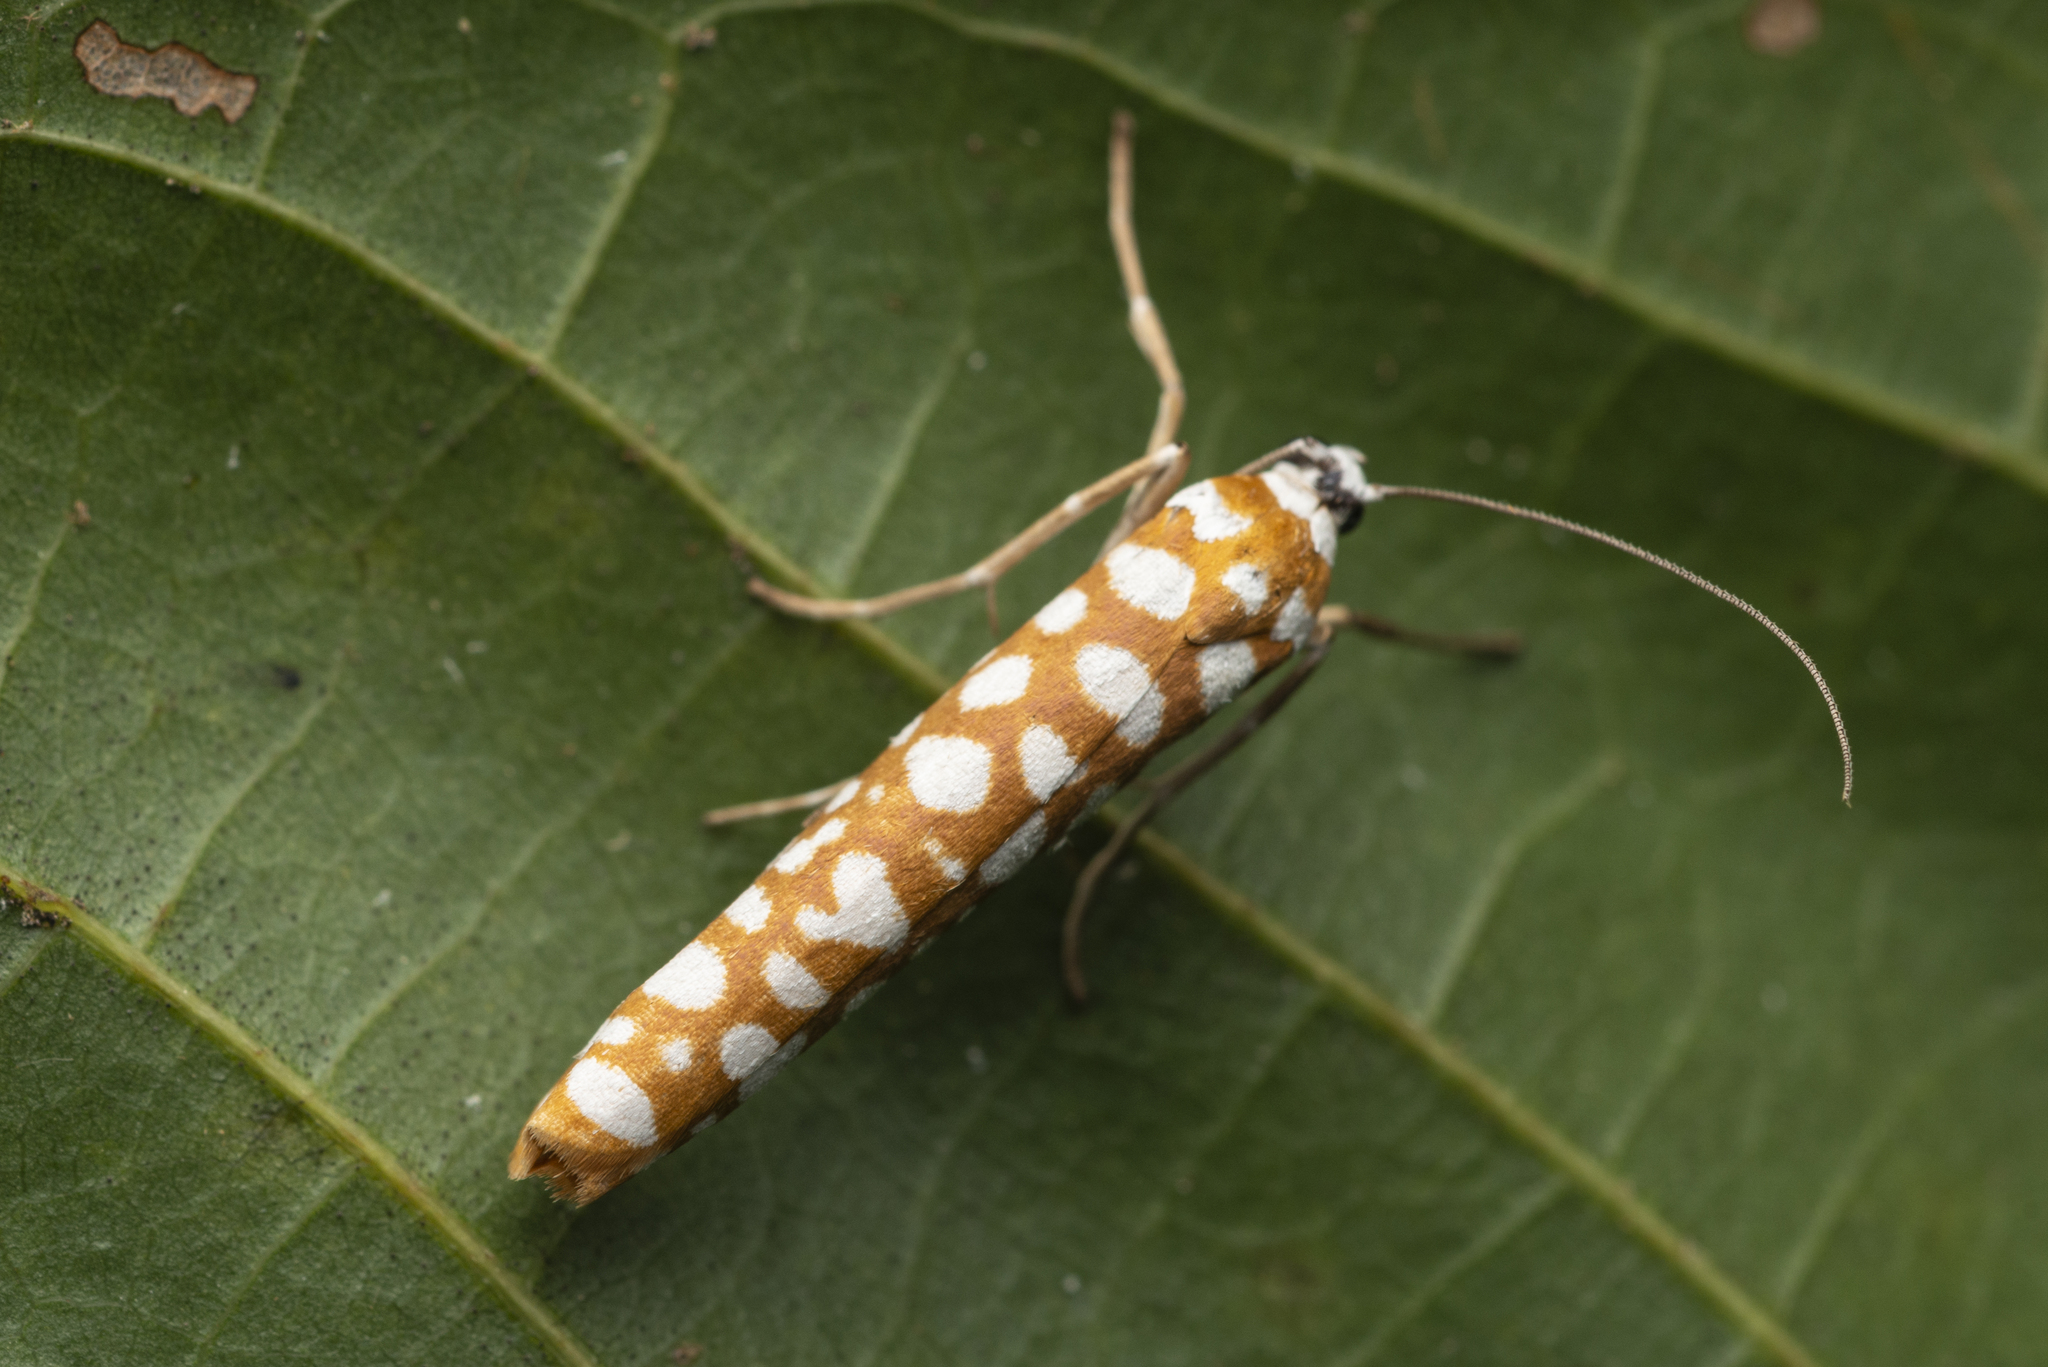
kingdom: Animalia
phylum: Arthropoda
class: Insecta
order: Lepidoptera
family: Attevidae
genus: Atteva
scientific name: Atteva wallengreni
